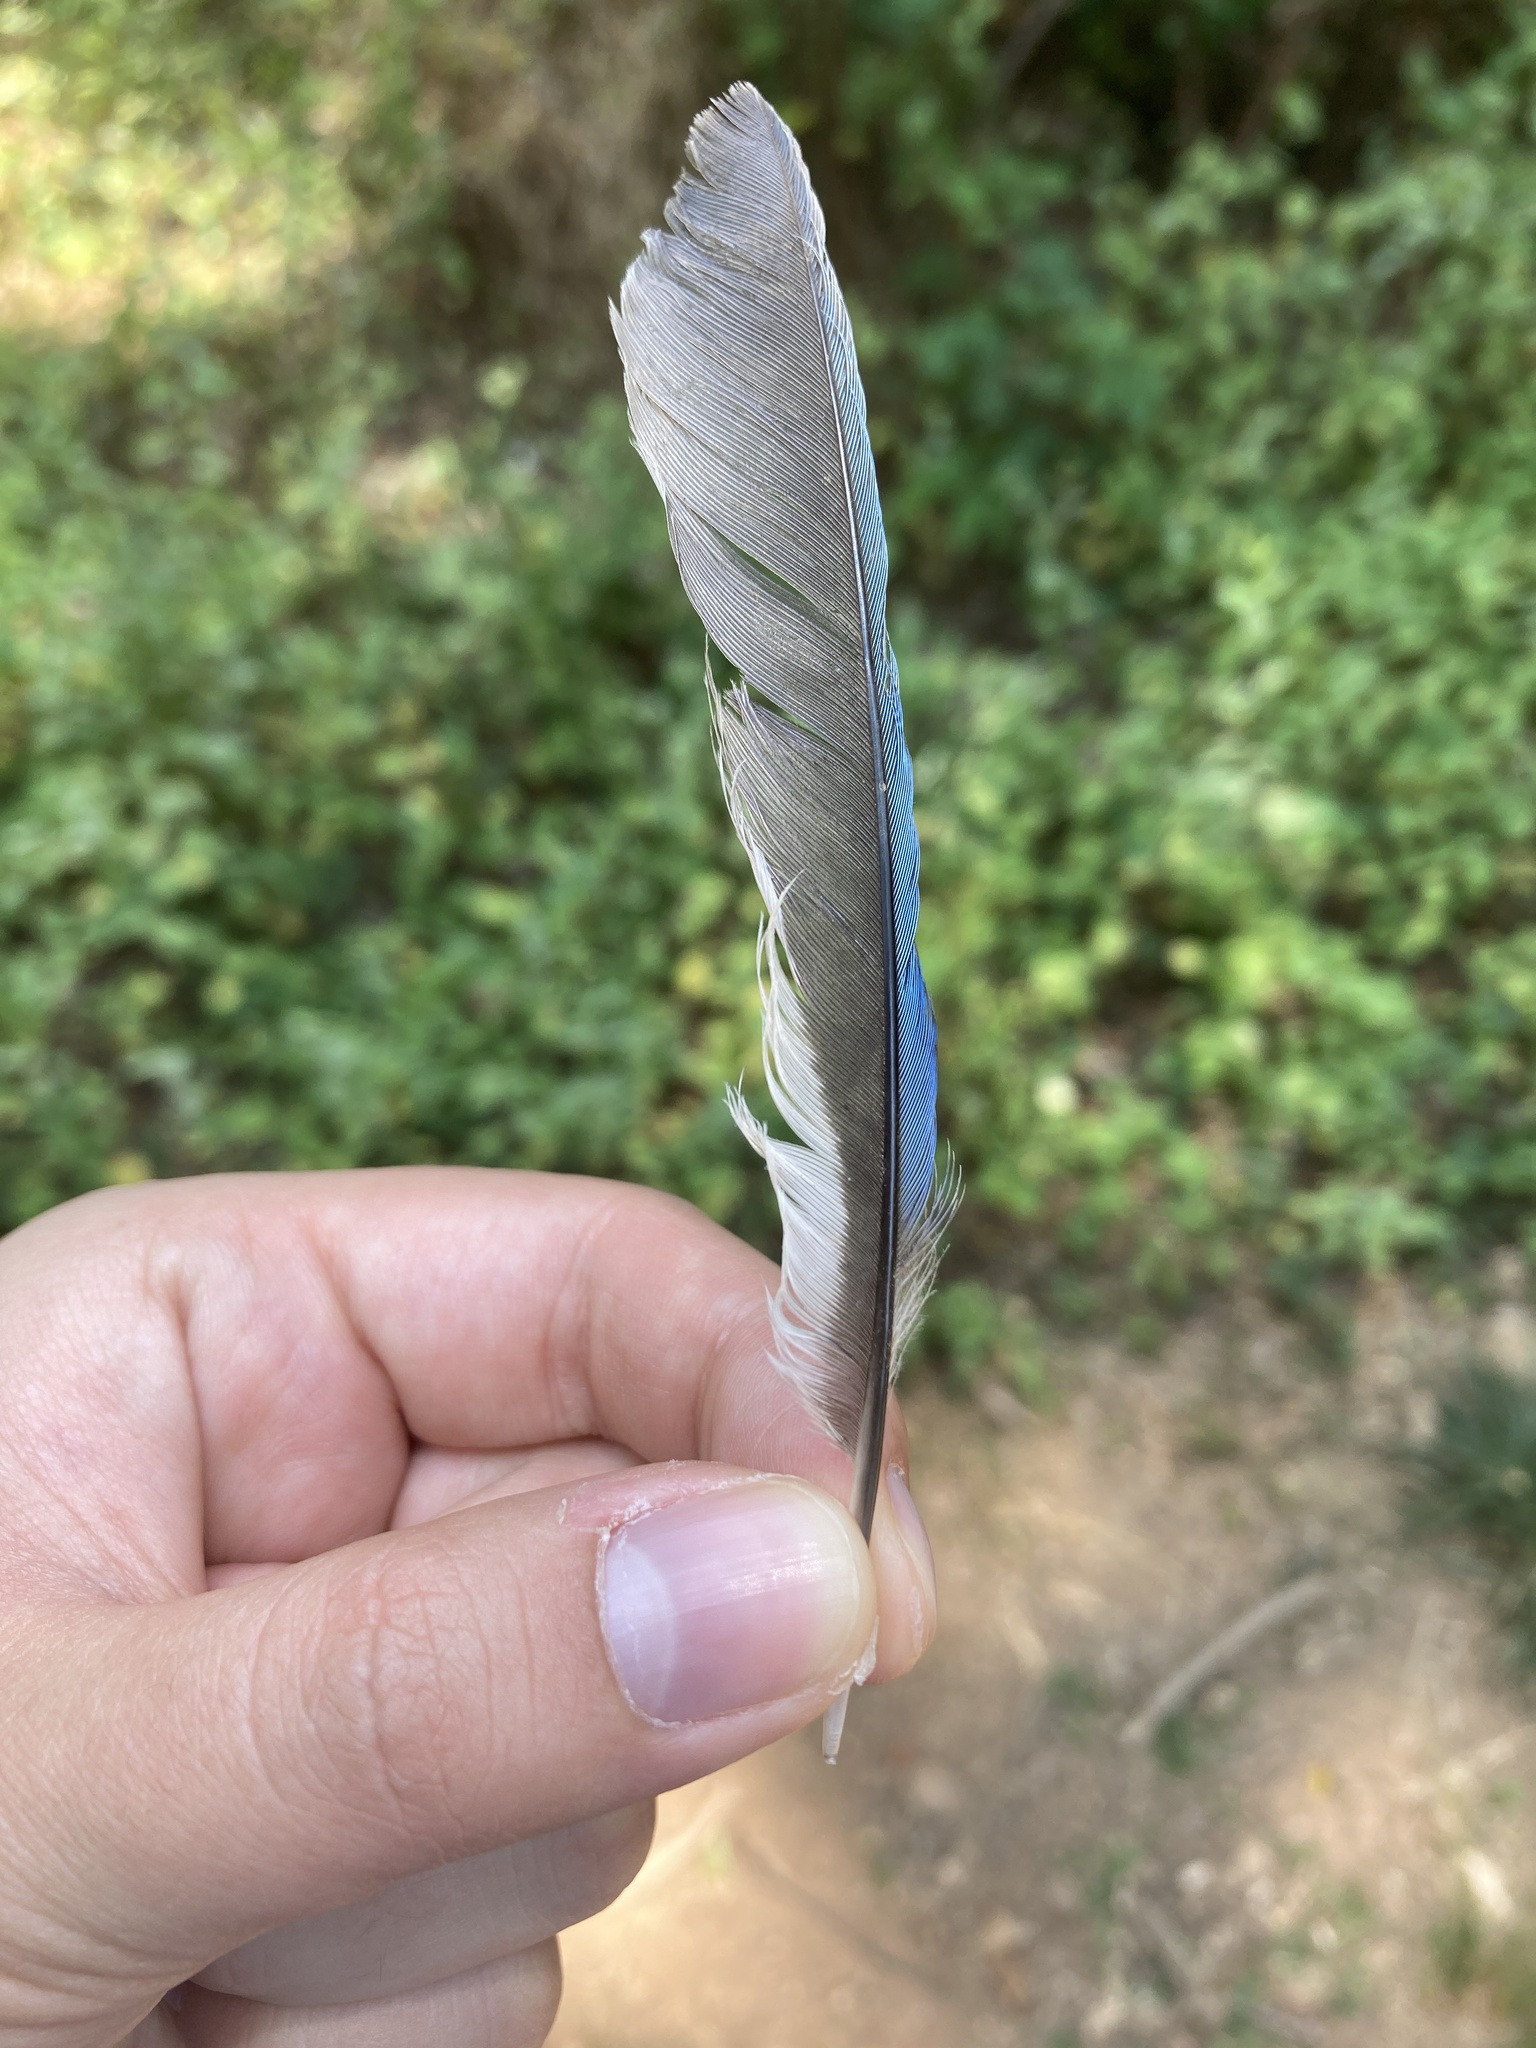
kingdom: Animalia
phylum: Chordata
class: Aves
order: Passeriformes
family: Corvidae
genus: Cyanocitta
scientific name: Cyanocitta cristata
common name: Blue jay
